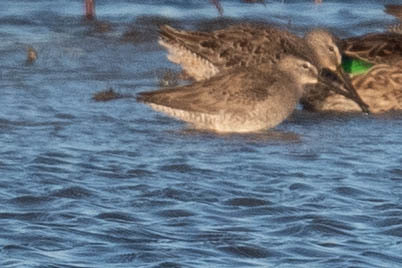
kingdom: Animalia
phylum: Chordata
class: Aves
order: Charadriiformes
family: Scolopacidae
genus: Limnodromus
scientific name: Limnodromus scolopaceus
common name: Long-billed dowitcher
